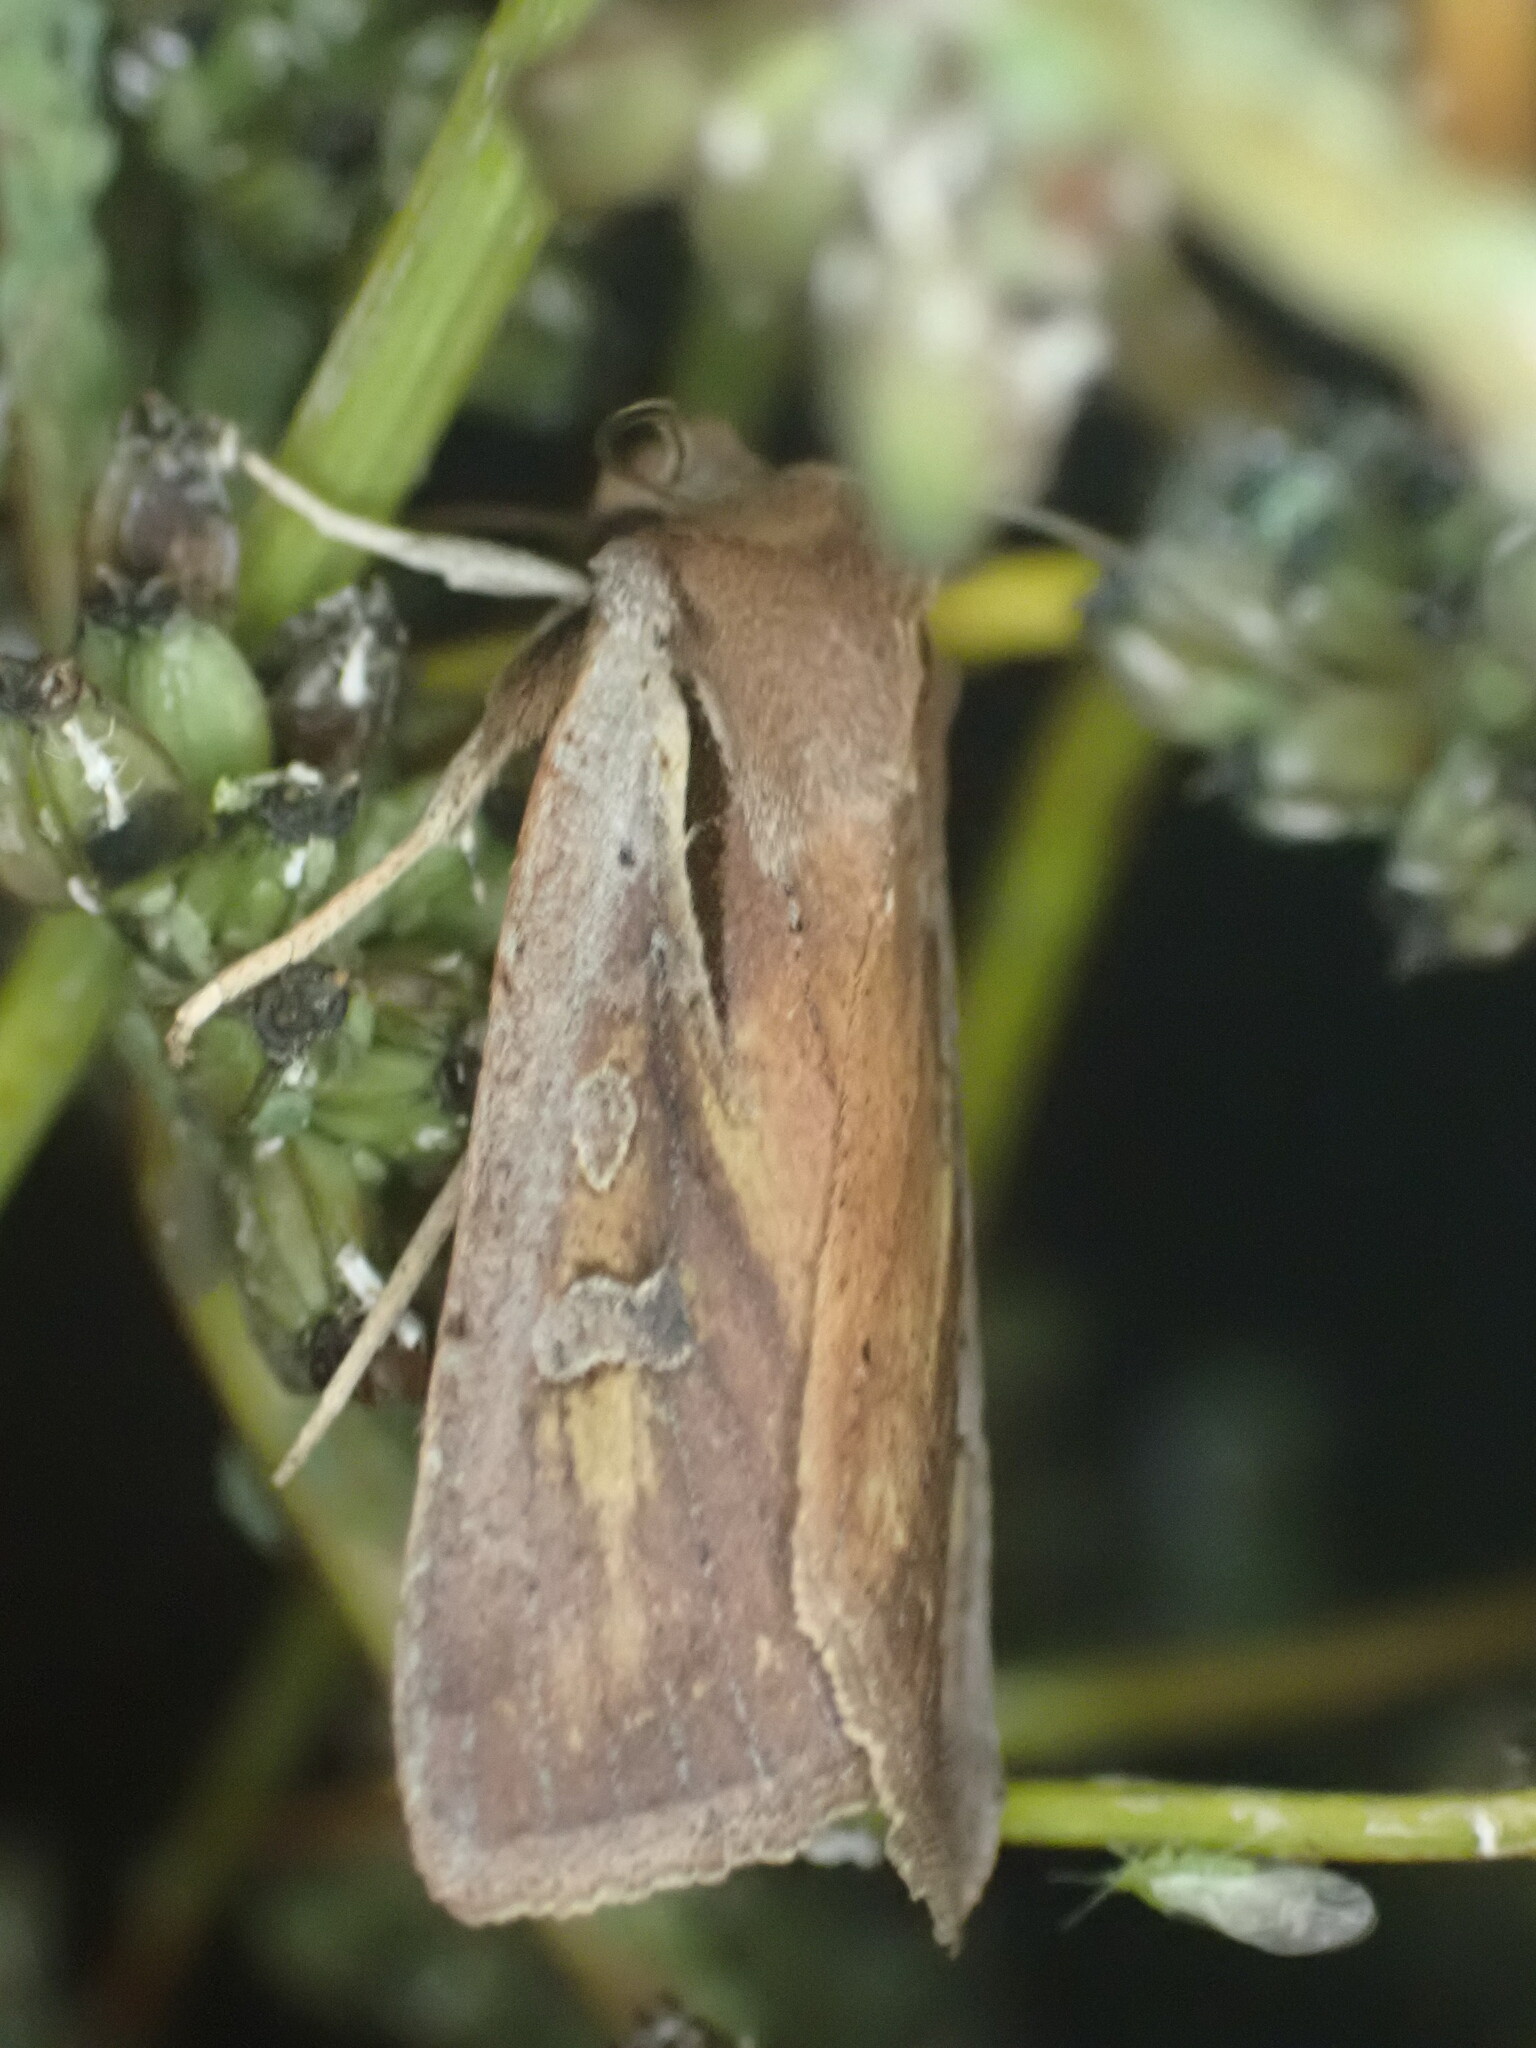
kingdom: Animalia
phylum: Arthropoda
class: Insecta
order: Lepidoptera
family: Noctuidae
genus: Ichneutica
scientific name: Ichneutica atristriga
